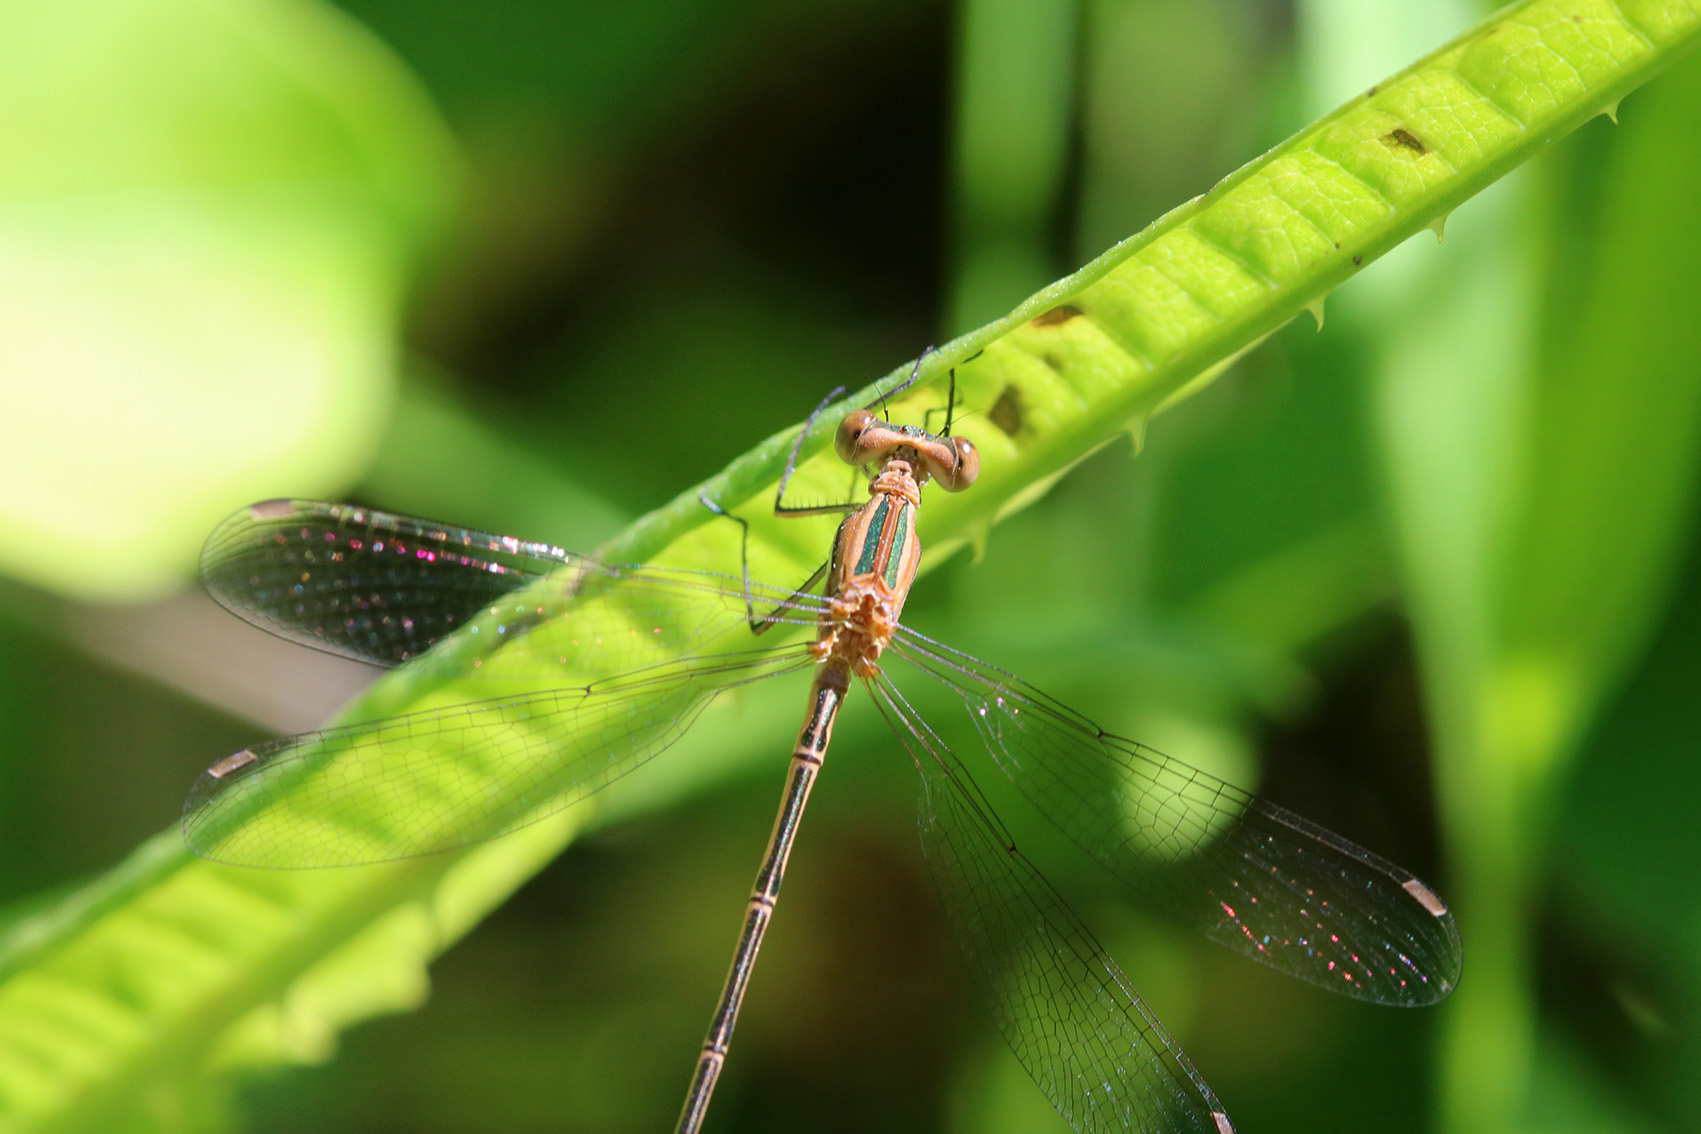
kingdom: Animalia
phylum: Arthropoda
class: Insecta
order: Odonata
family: Lestidae
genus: Lestes
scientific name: Lestes undulatus
